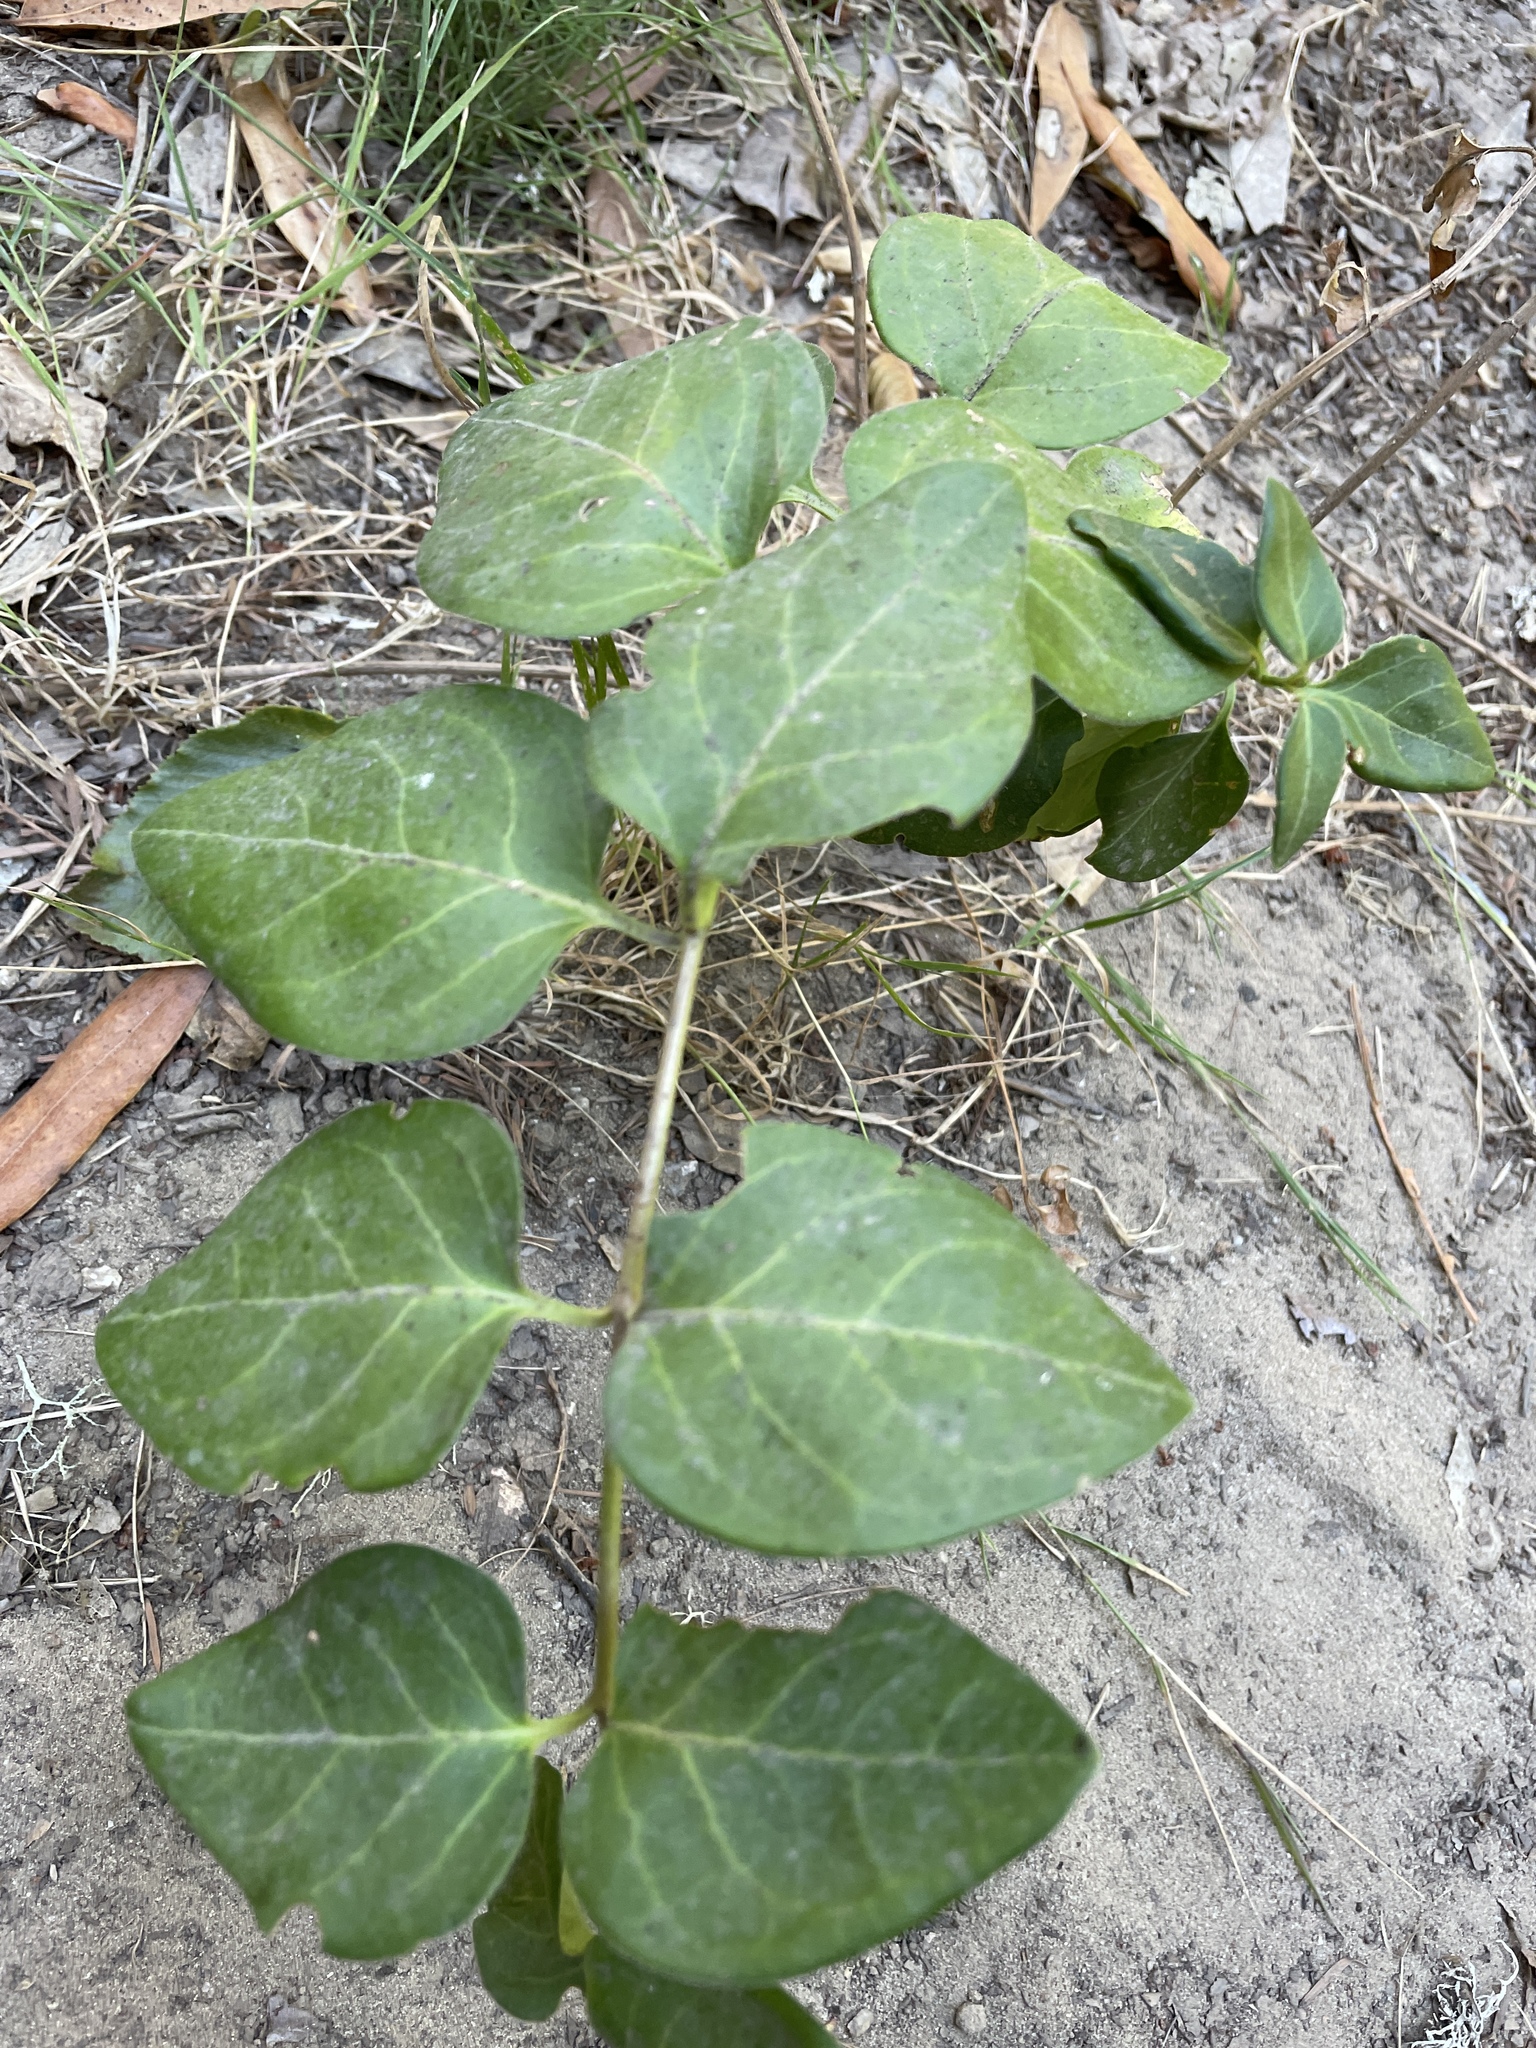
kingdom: Plantae
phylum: Tracheophyta
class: Magnoliopsida
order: Gentianales
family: Apocynaceae
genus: Vinca
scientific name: Vinca major
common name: Greater periwinkle
